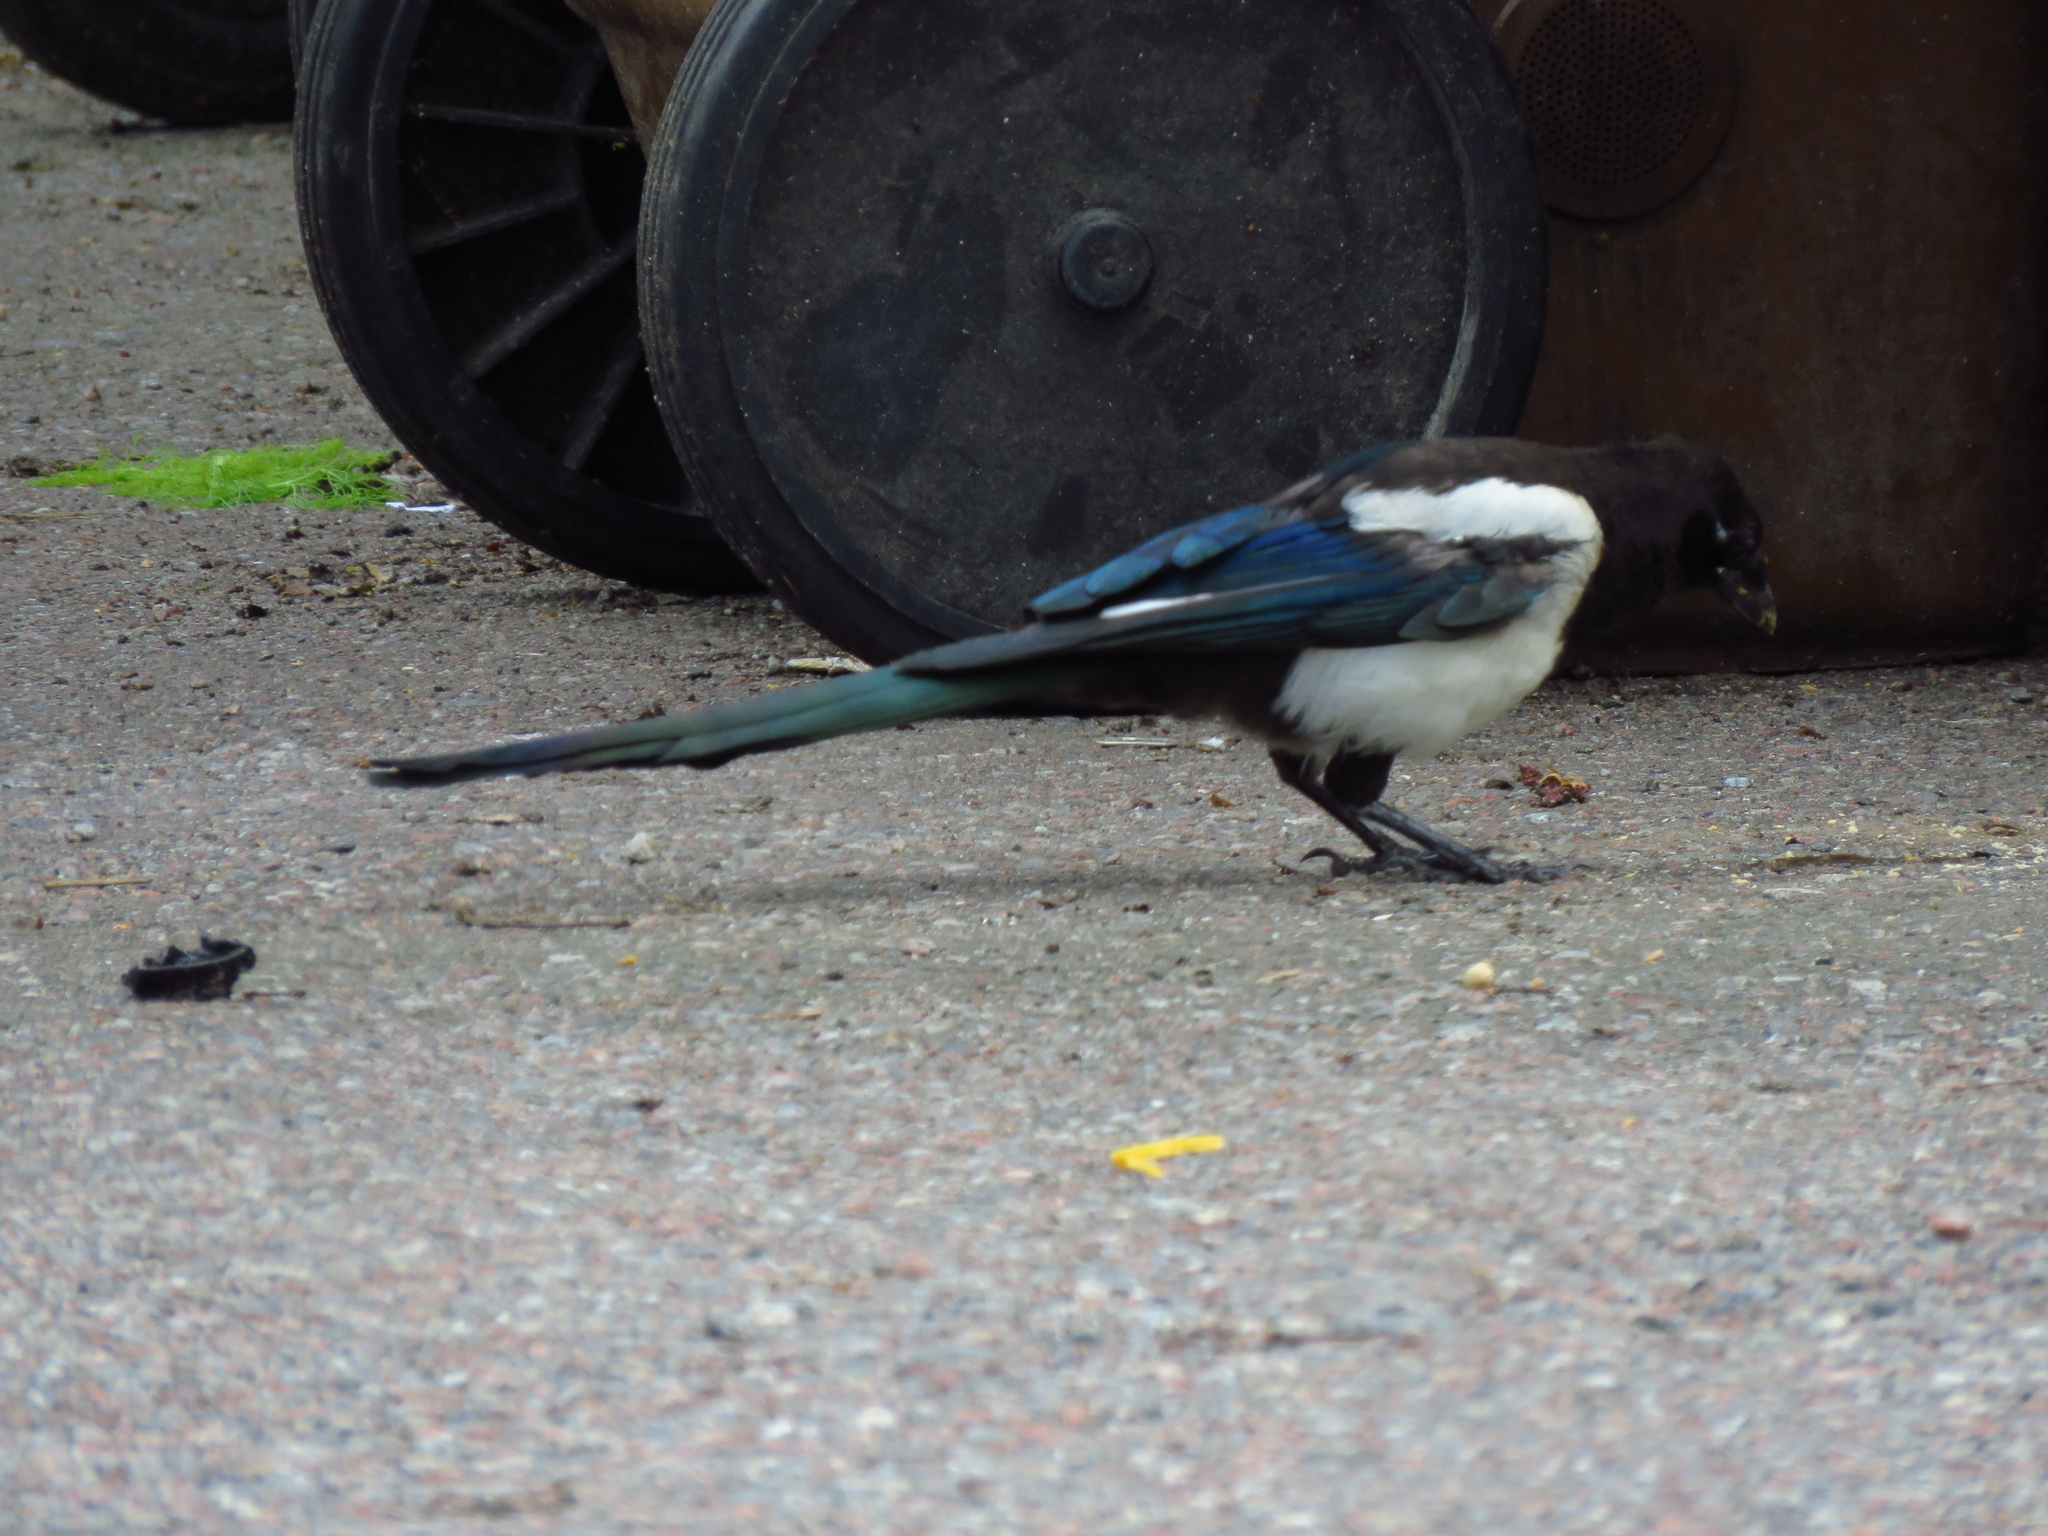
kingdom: Animalia
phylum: Chordata
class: Aves
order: Passeriformes
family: Corvidae
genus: Pica
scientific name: Pica pica
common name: Eurasian magpie
